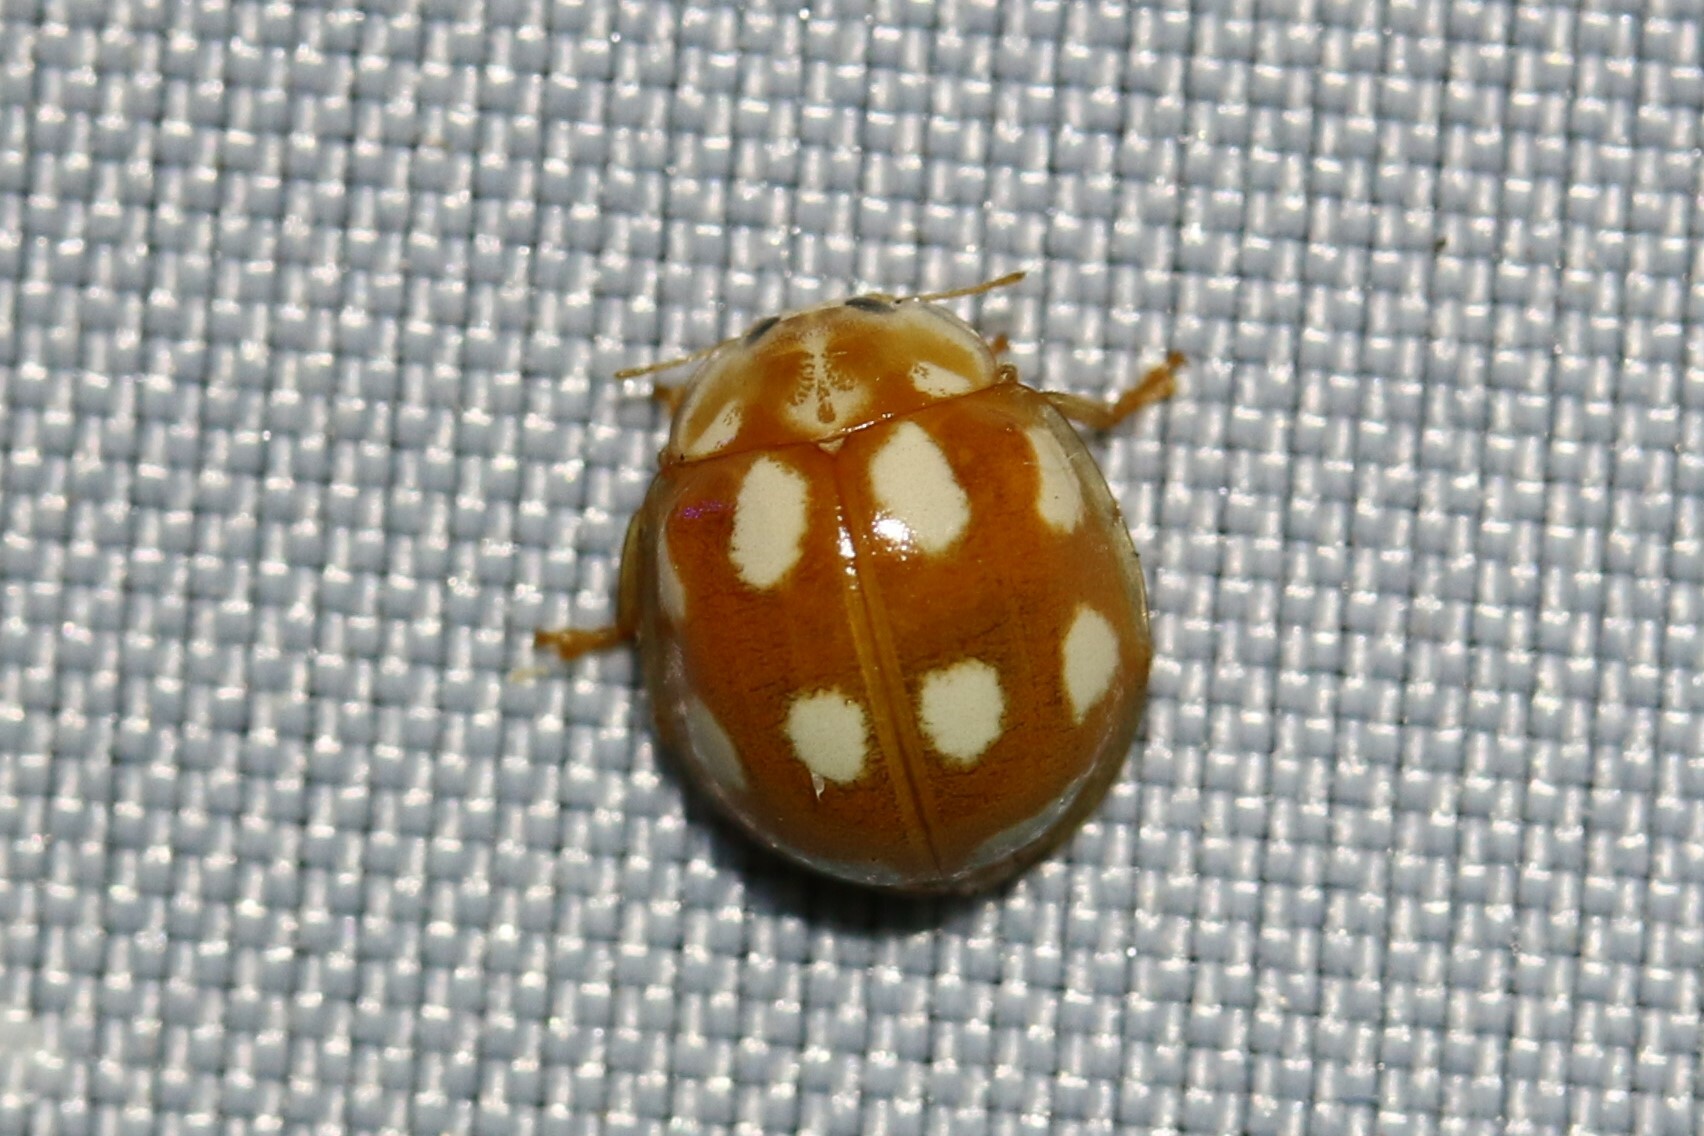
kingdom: Animalia
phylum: Arthropoda
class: Insecta
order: Coleoptera
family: Coccinellidae
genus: Calvia
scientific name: Calvia decemguttata
